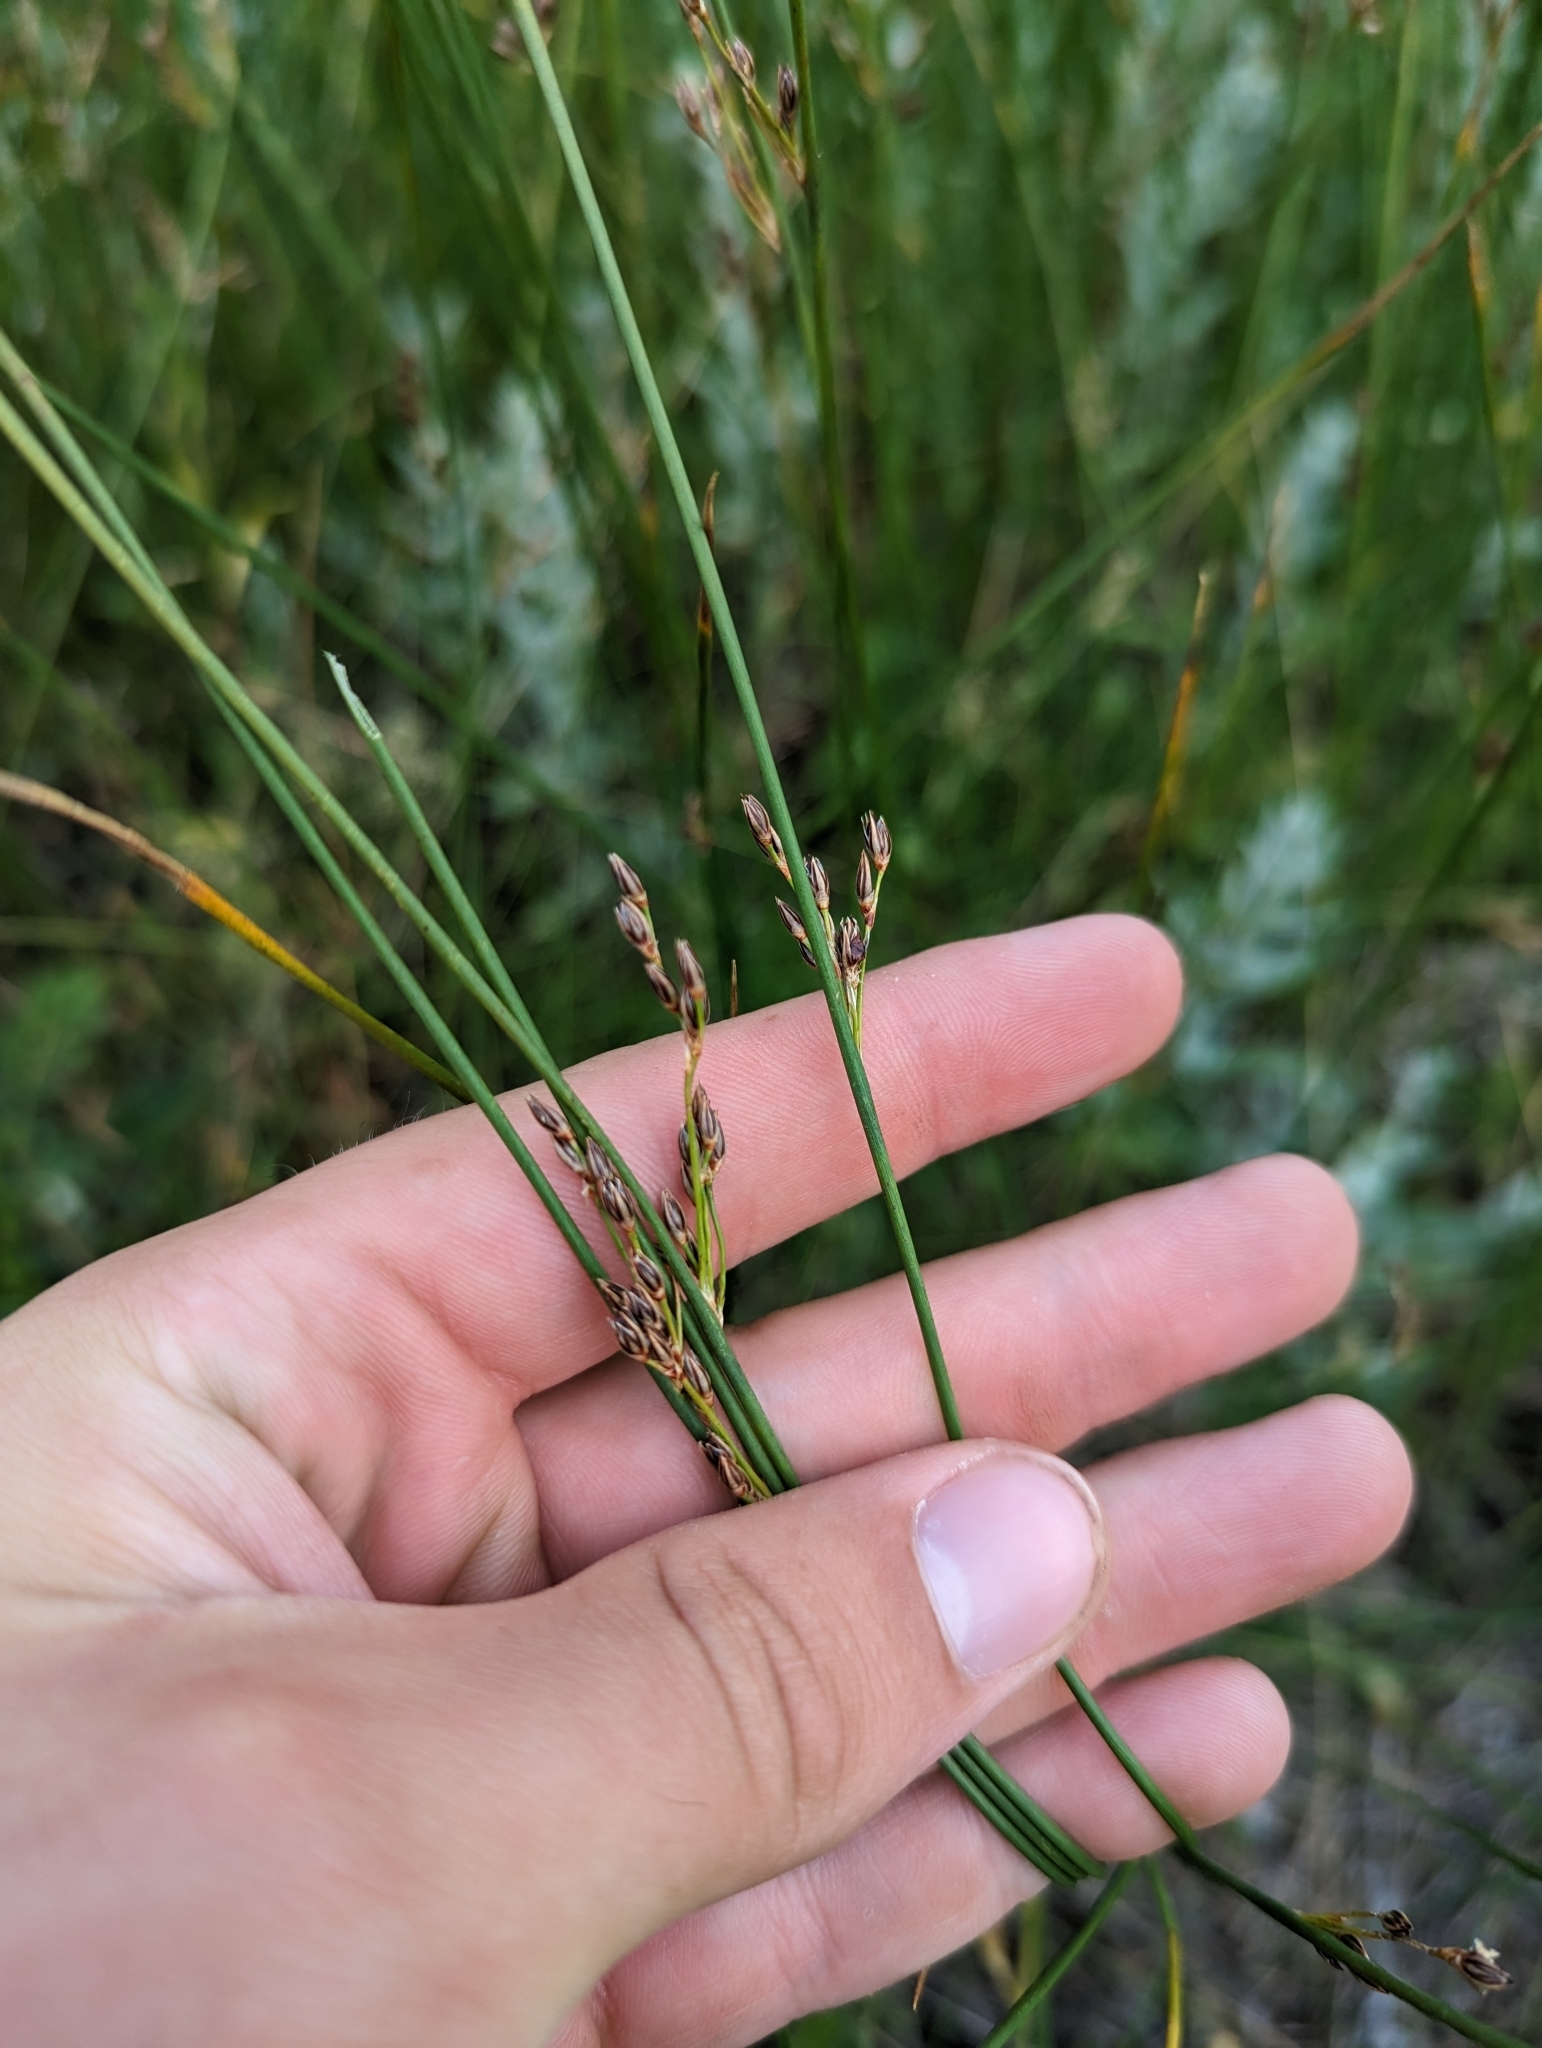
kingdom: Plantae
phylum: Tracheophyta
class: Liliopsida
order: Poales
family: Juncaceae
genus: Juncus
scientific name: Juncus balticus
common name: Baltic rush
